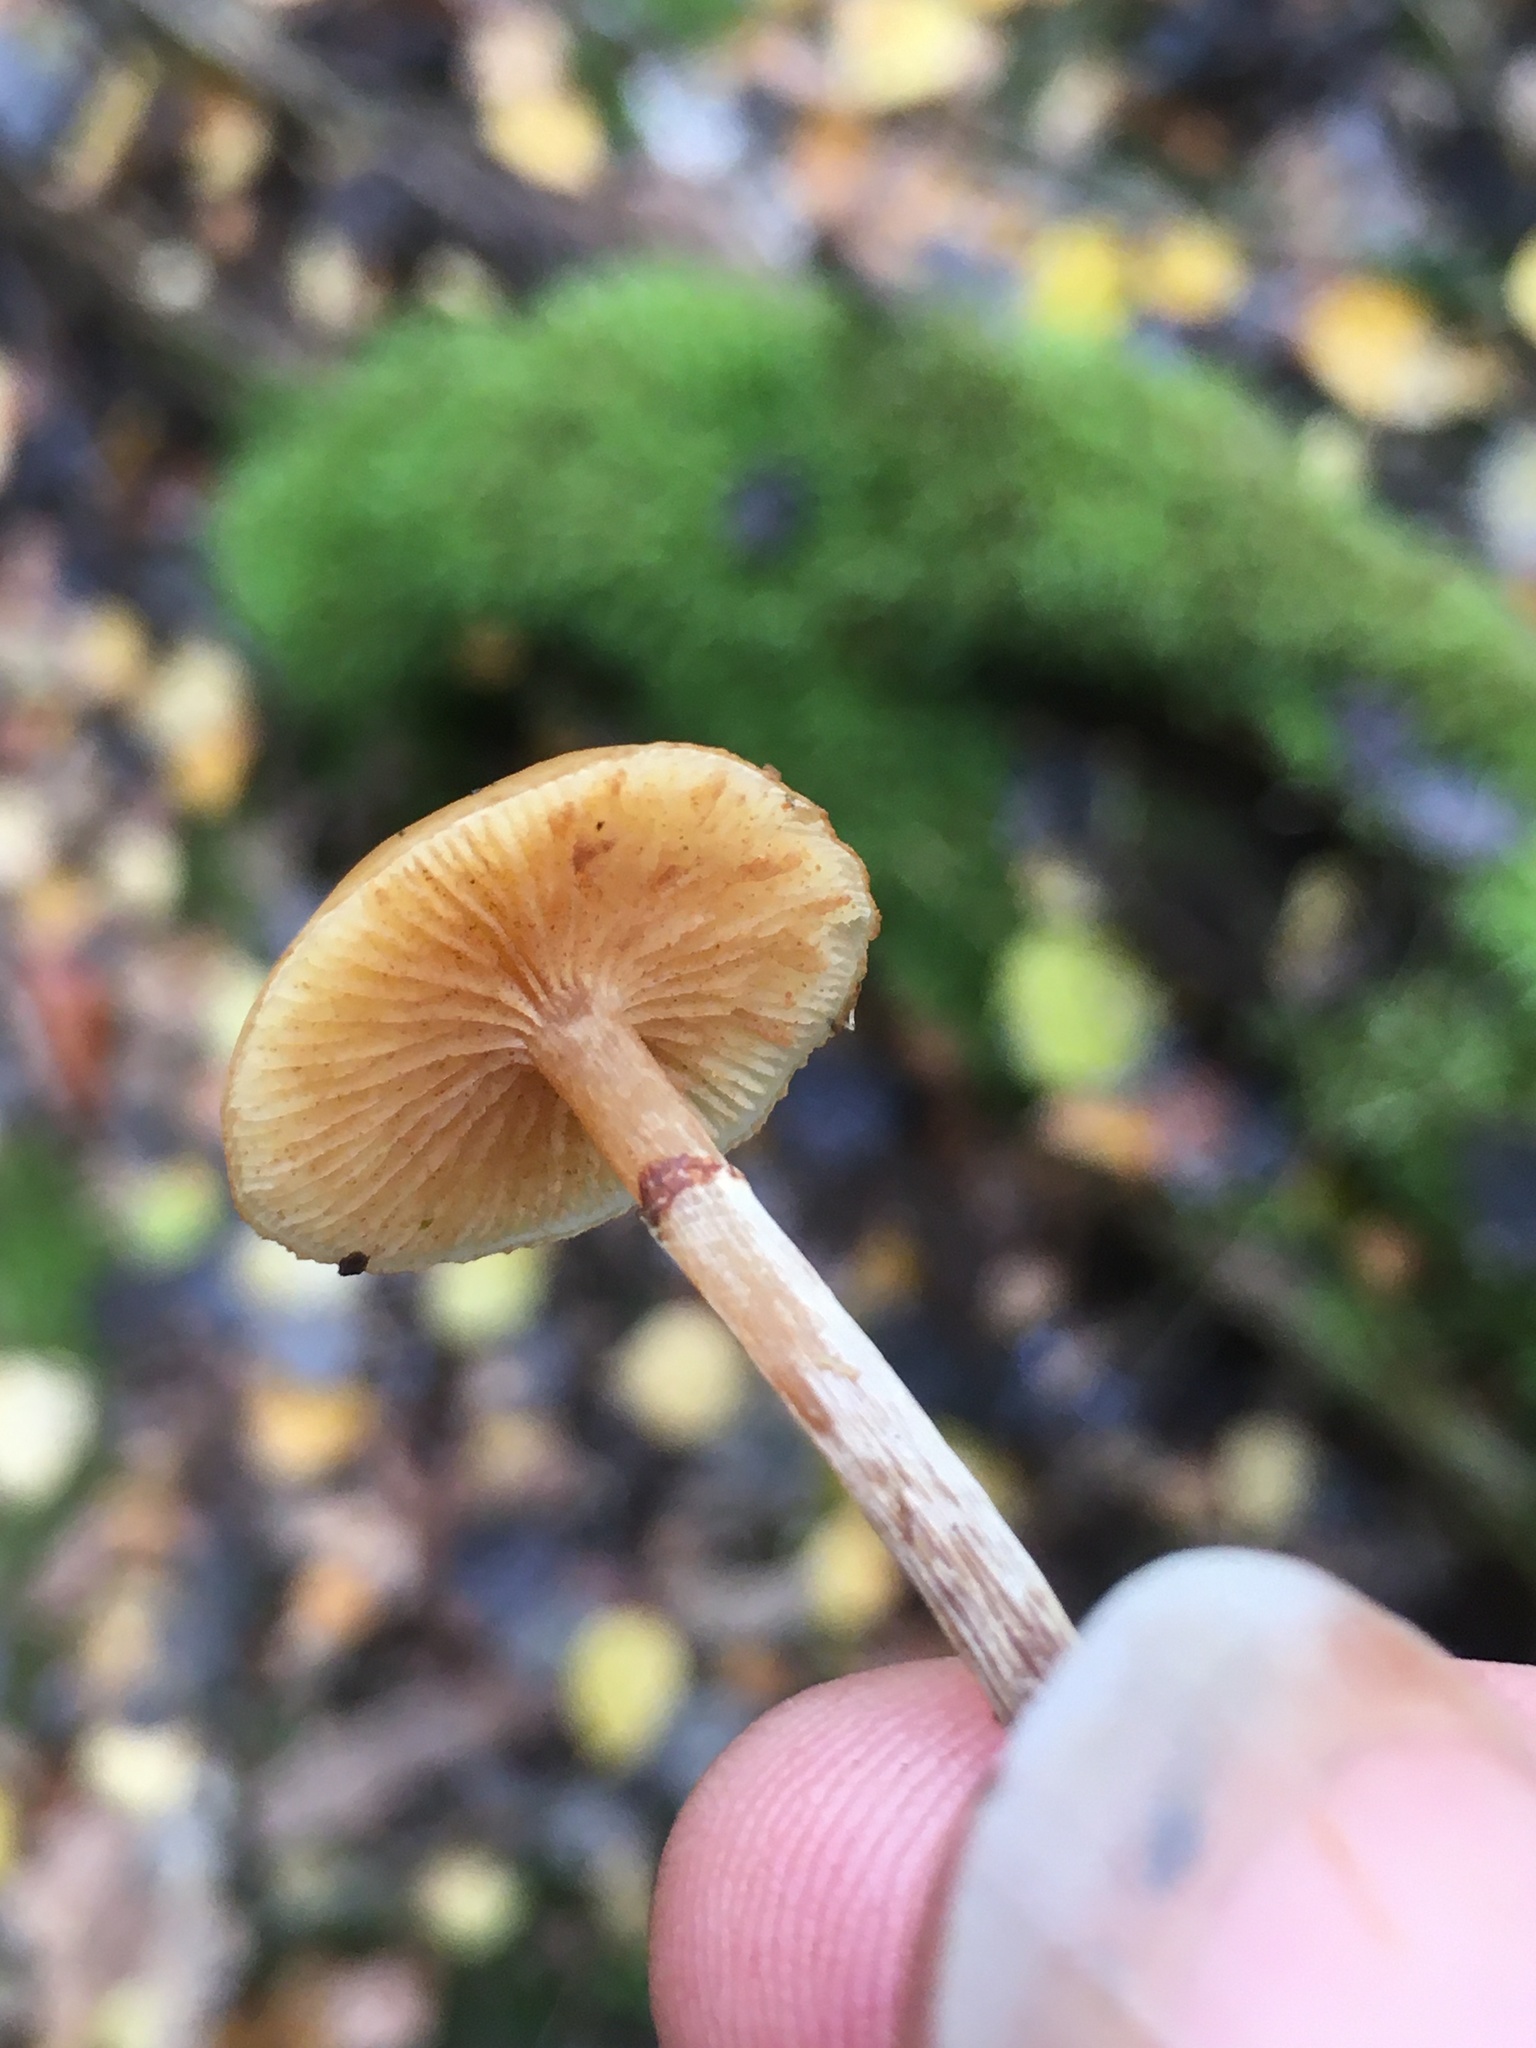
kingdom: Fungi
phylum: Basidiomycota
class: Agaricomycetes
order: Agaricales
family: Hymenogastraceae
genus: Galerina
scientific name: Galerina marginata
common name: Funeral bell
